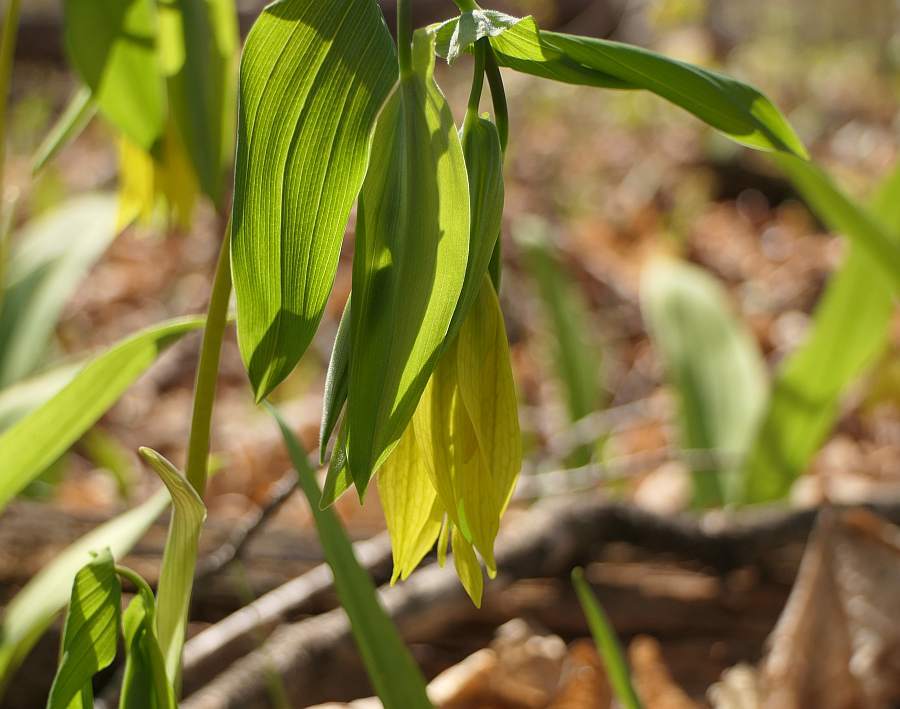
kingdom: Plantae
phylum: Tracheophyta
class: Liliopsida
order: Liliales
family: Colchicaceae
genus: Uvularia
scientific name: Uvularia grandiflora
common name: Bellwort
